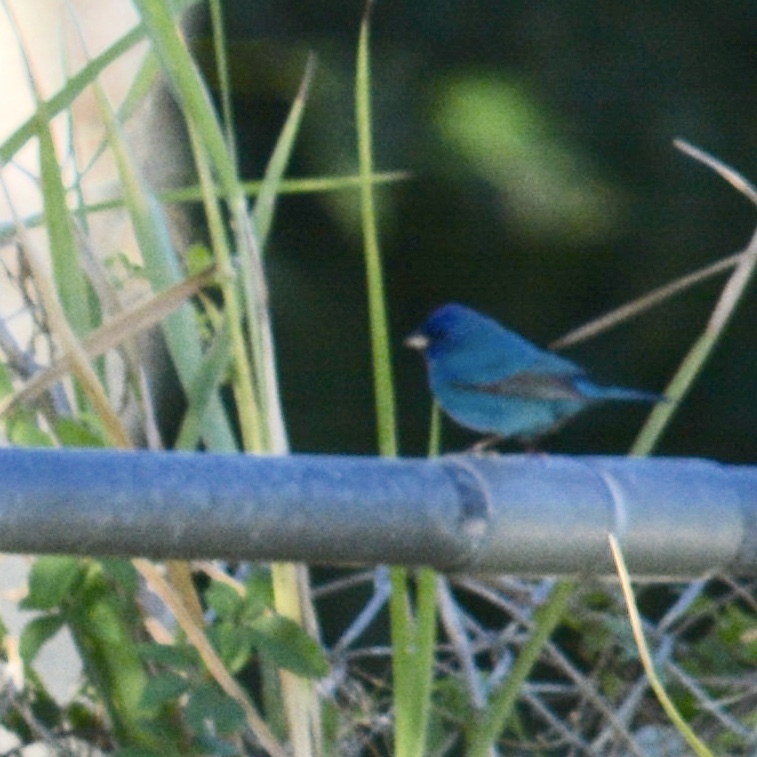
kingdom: Animalia
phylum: Chordata
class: Aves
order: Passeriformes
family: Cardinalidae
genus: Passerina
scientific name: Passerina cyanea
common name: Indigo bunting
